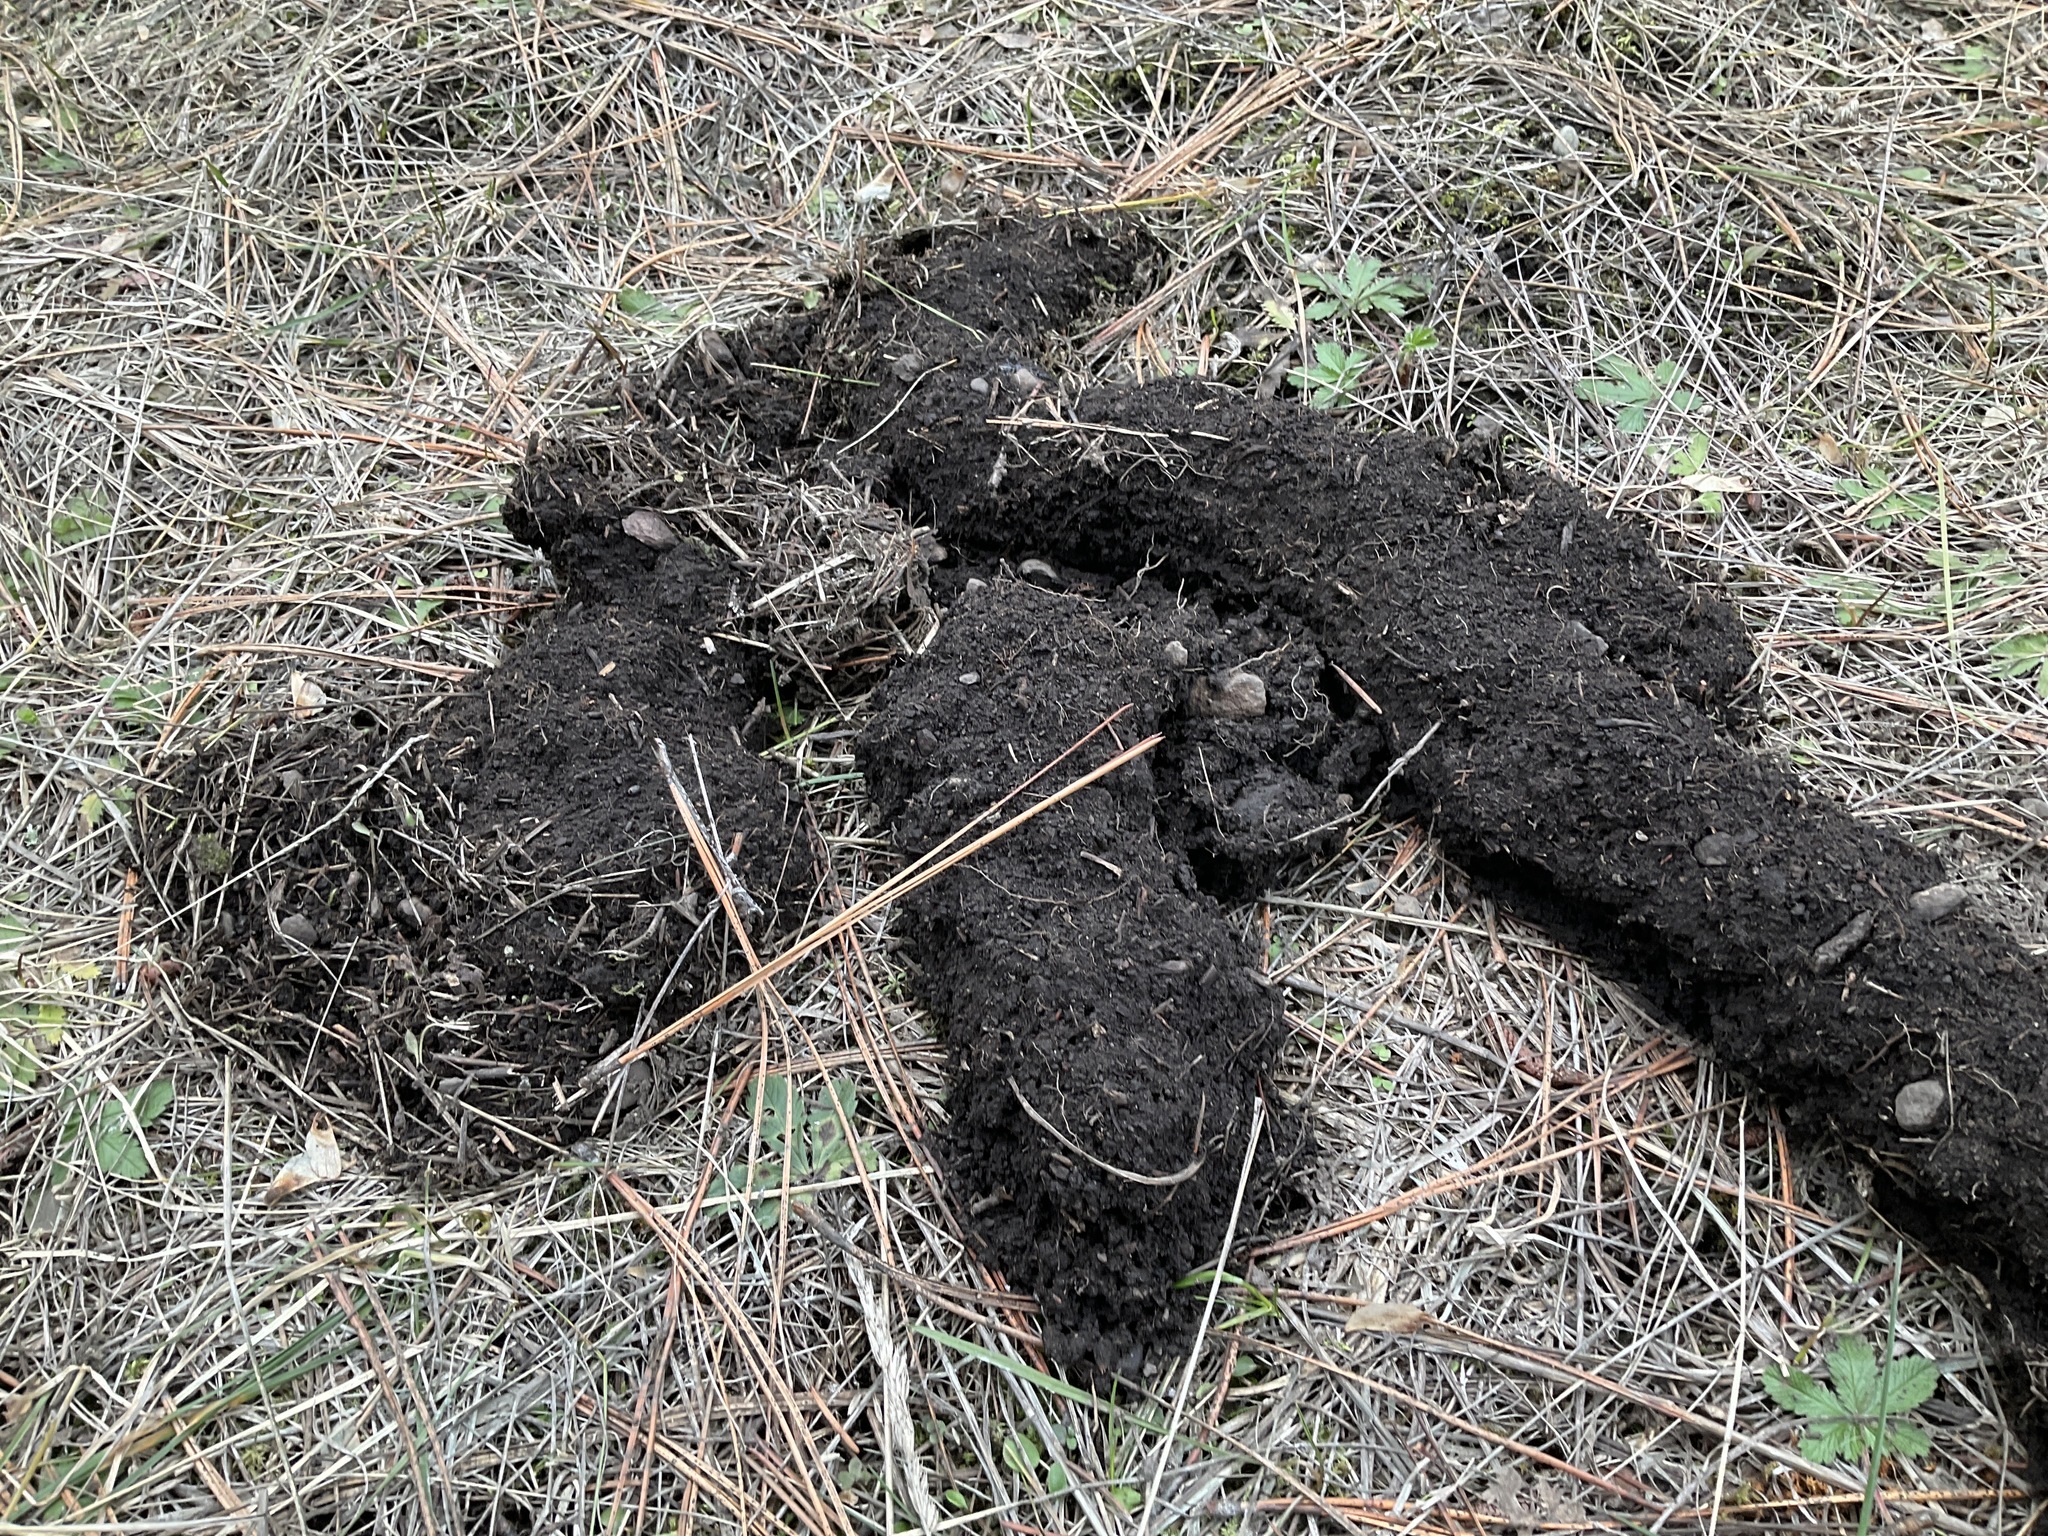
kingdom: Animalia
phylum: Chordata
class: Mammalia
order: Rodentia
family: Geomyidae
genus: Thomomys
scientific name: Thomomys talpoides
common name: Northern pocket gopher
